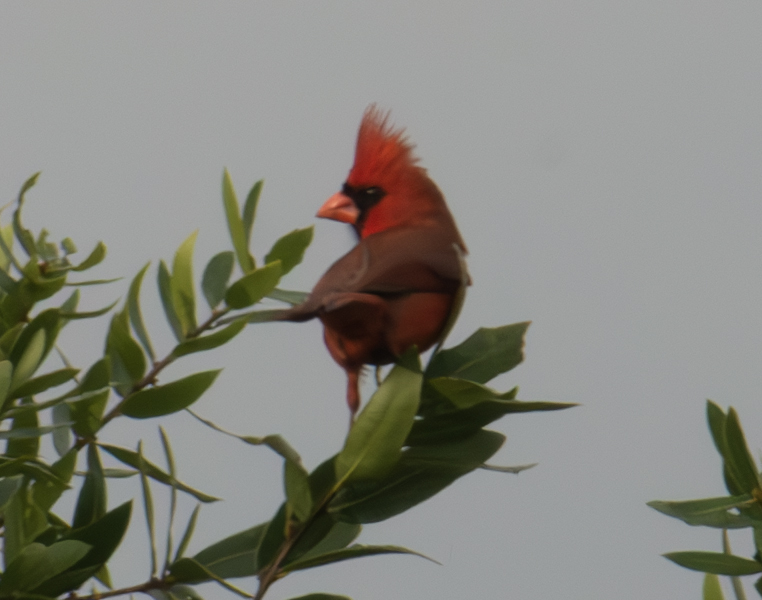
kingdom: Animalia
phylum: Chordata
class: Aves
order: Passeriformes
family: Cardinalidae
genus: Cardinalis
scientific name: Cardinalis cardinalis
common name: Northern cardinal
